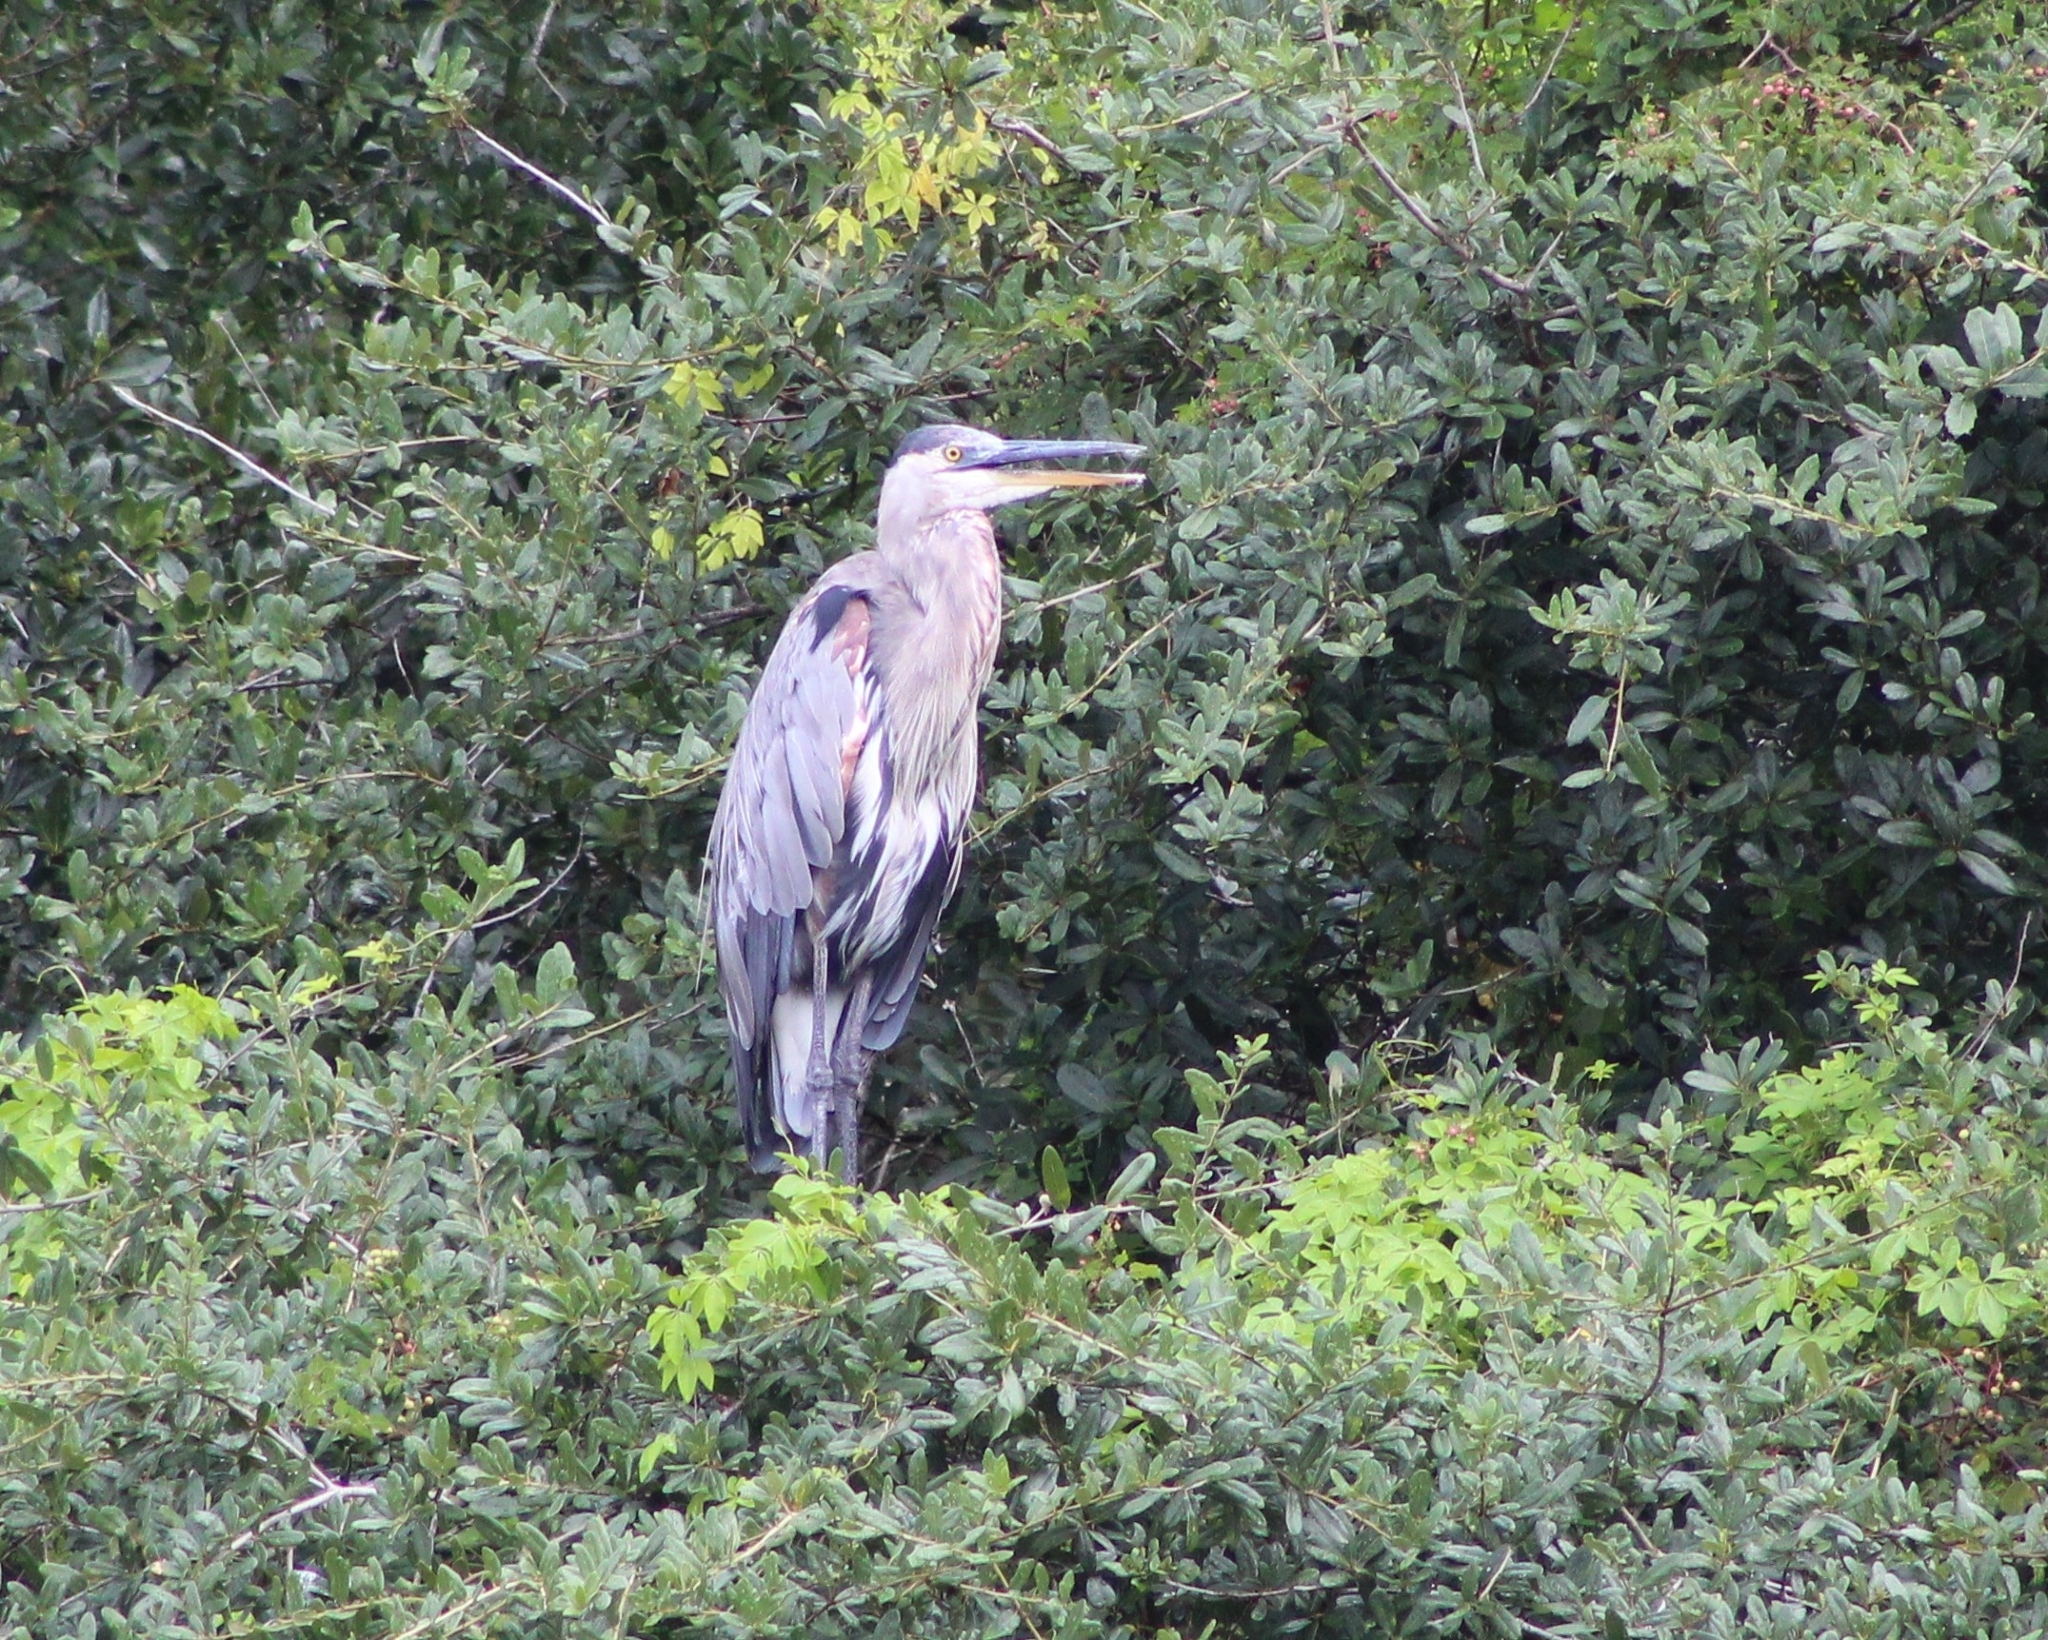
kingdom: Animalia
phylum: Chordata
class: Aves
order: Pelecaniformes
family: Ardeidae
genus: Ardea
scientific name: Ardea herodias
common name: Great blue heron
